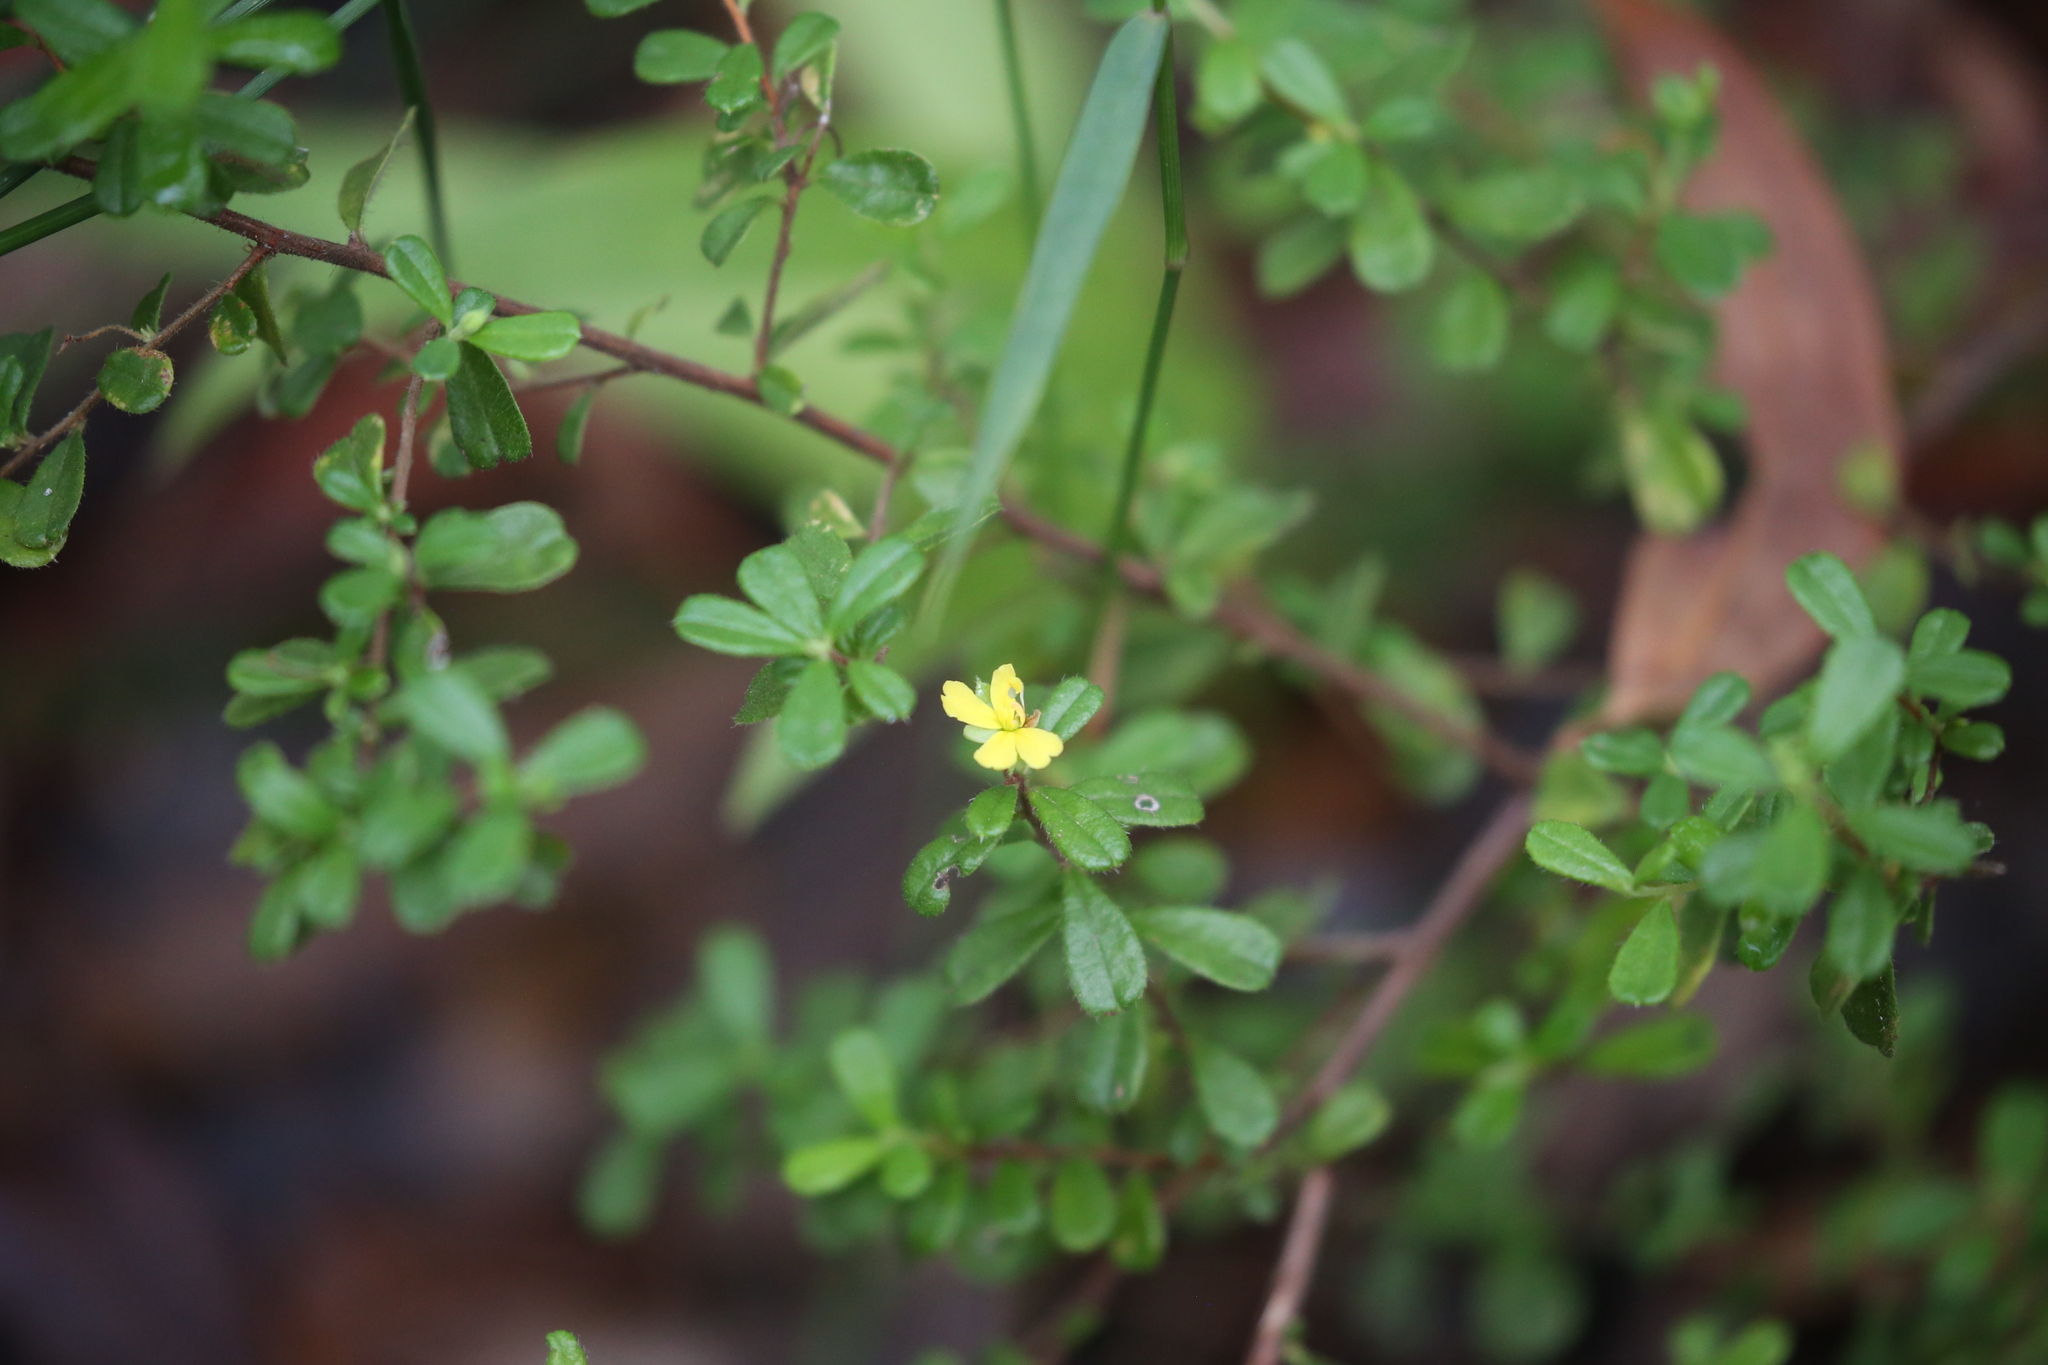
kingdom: Plantae
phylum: Tracheophyta
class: Magnoliopsida
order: Dilleniales
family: Dilleniaceae
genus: Hibbertia
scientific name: Hibbertia aspera
